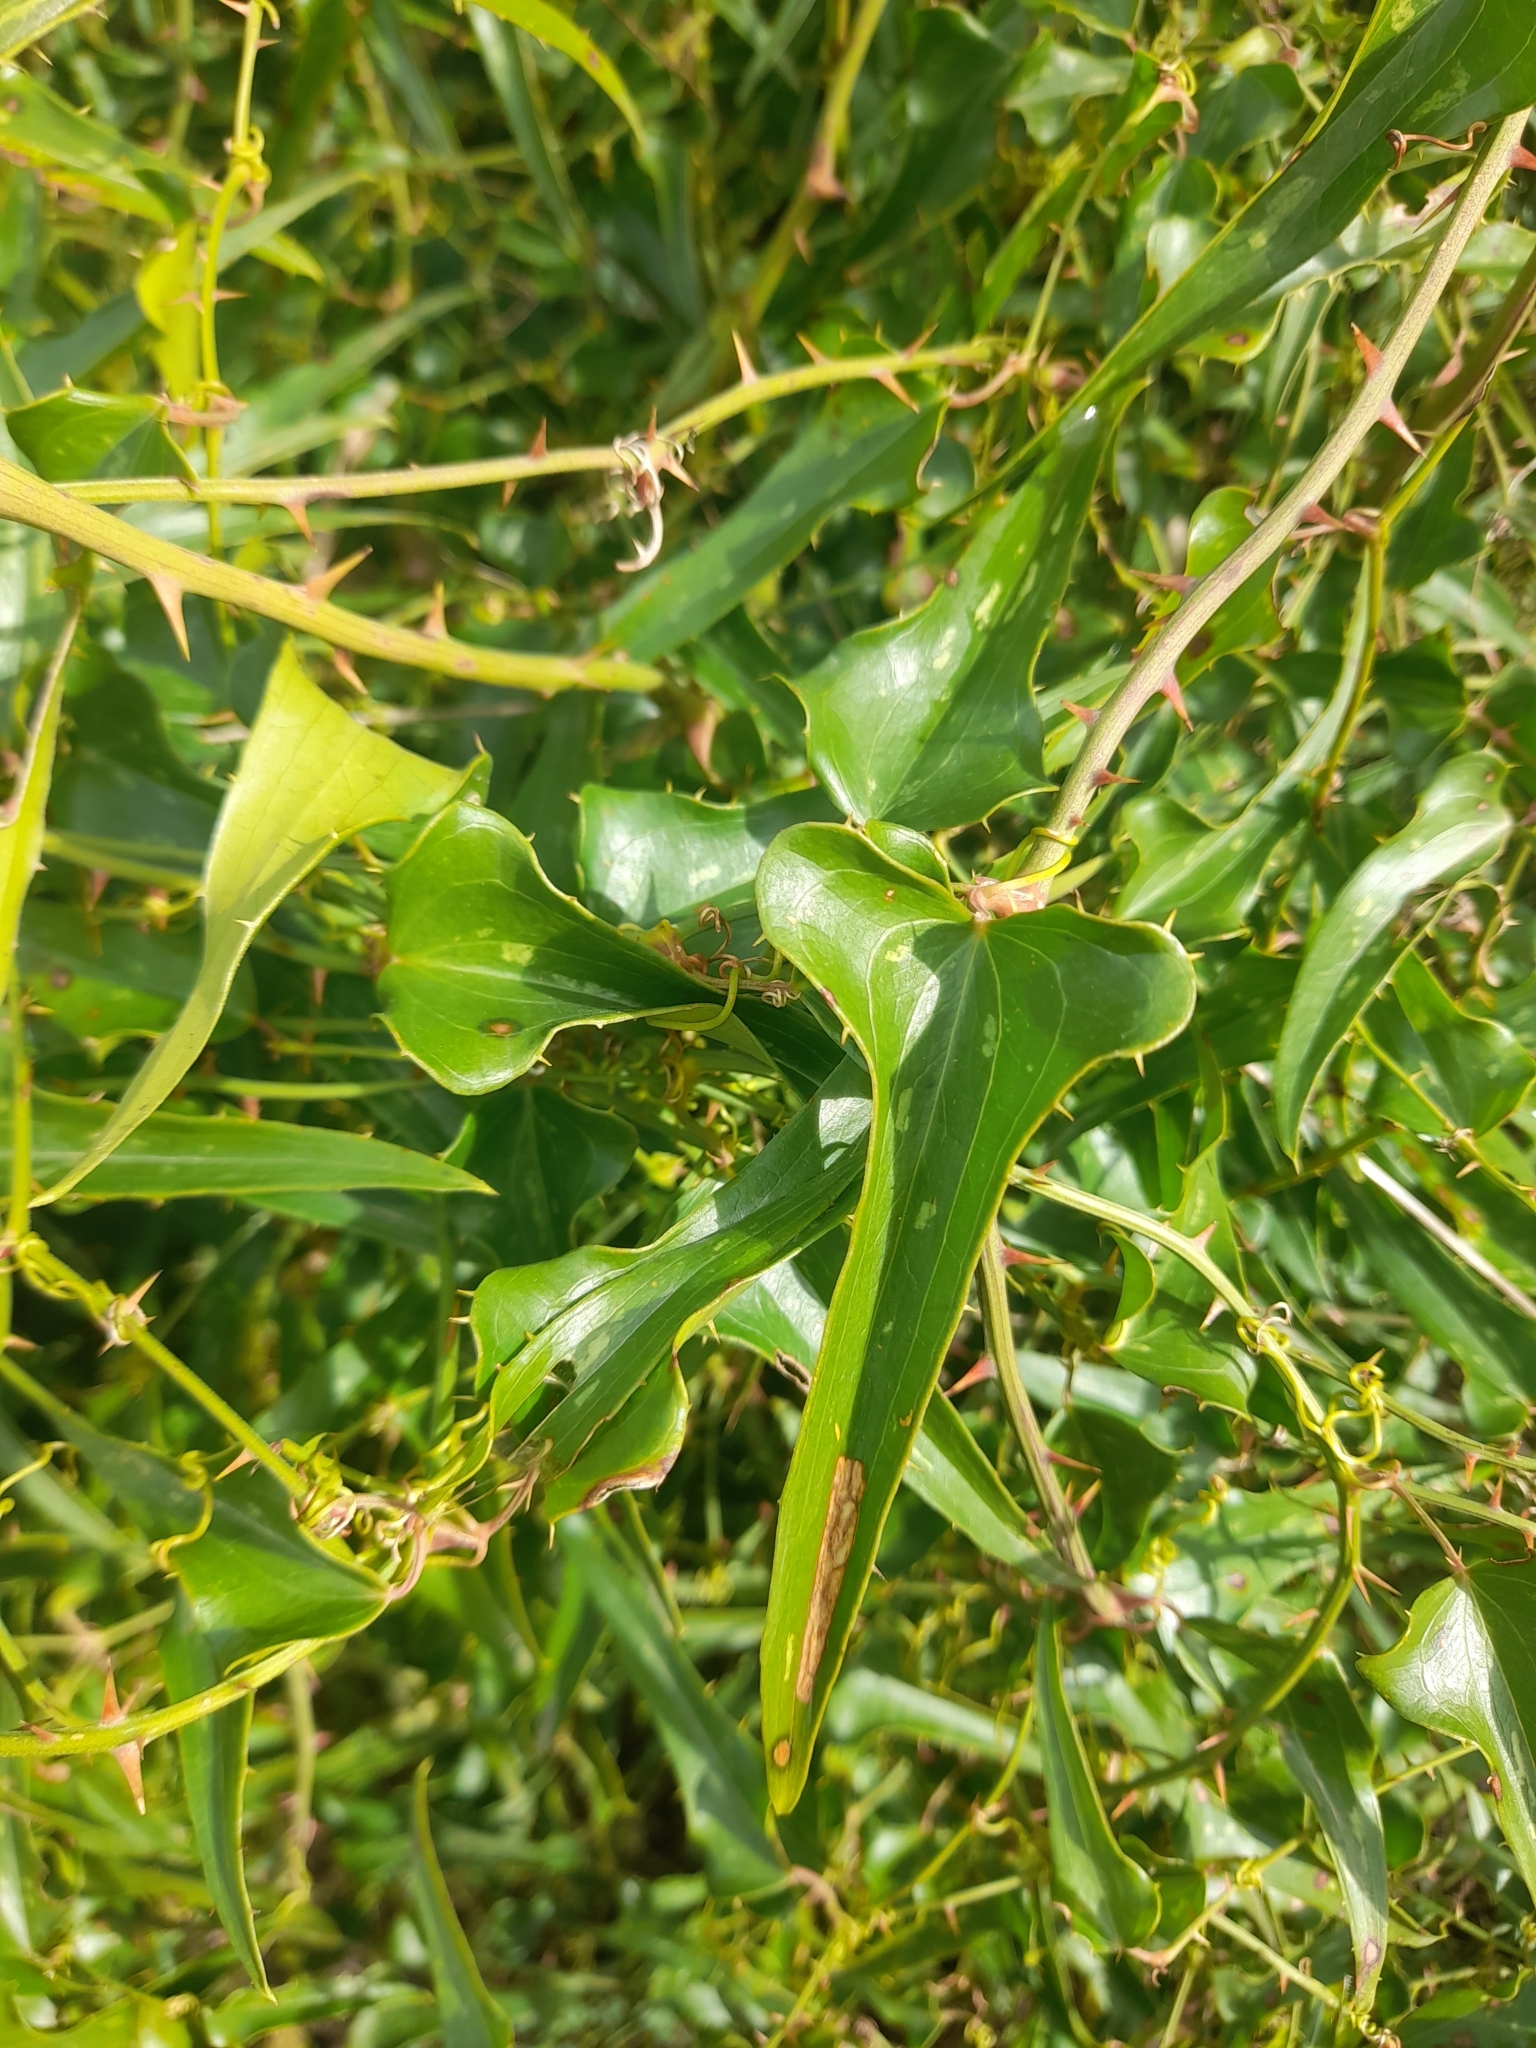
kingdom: Plantae
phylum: Tracheophyta
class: Liliopsida
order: Liliales
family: Smilacaceae
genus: Smilax
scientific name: Smilax aspera
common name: Common smilax
